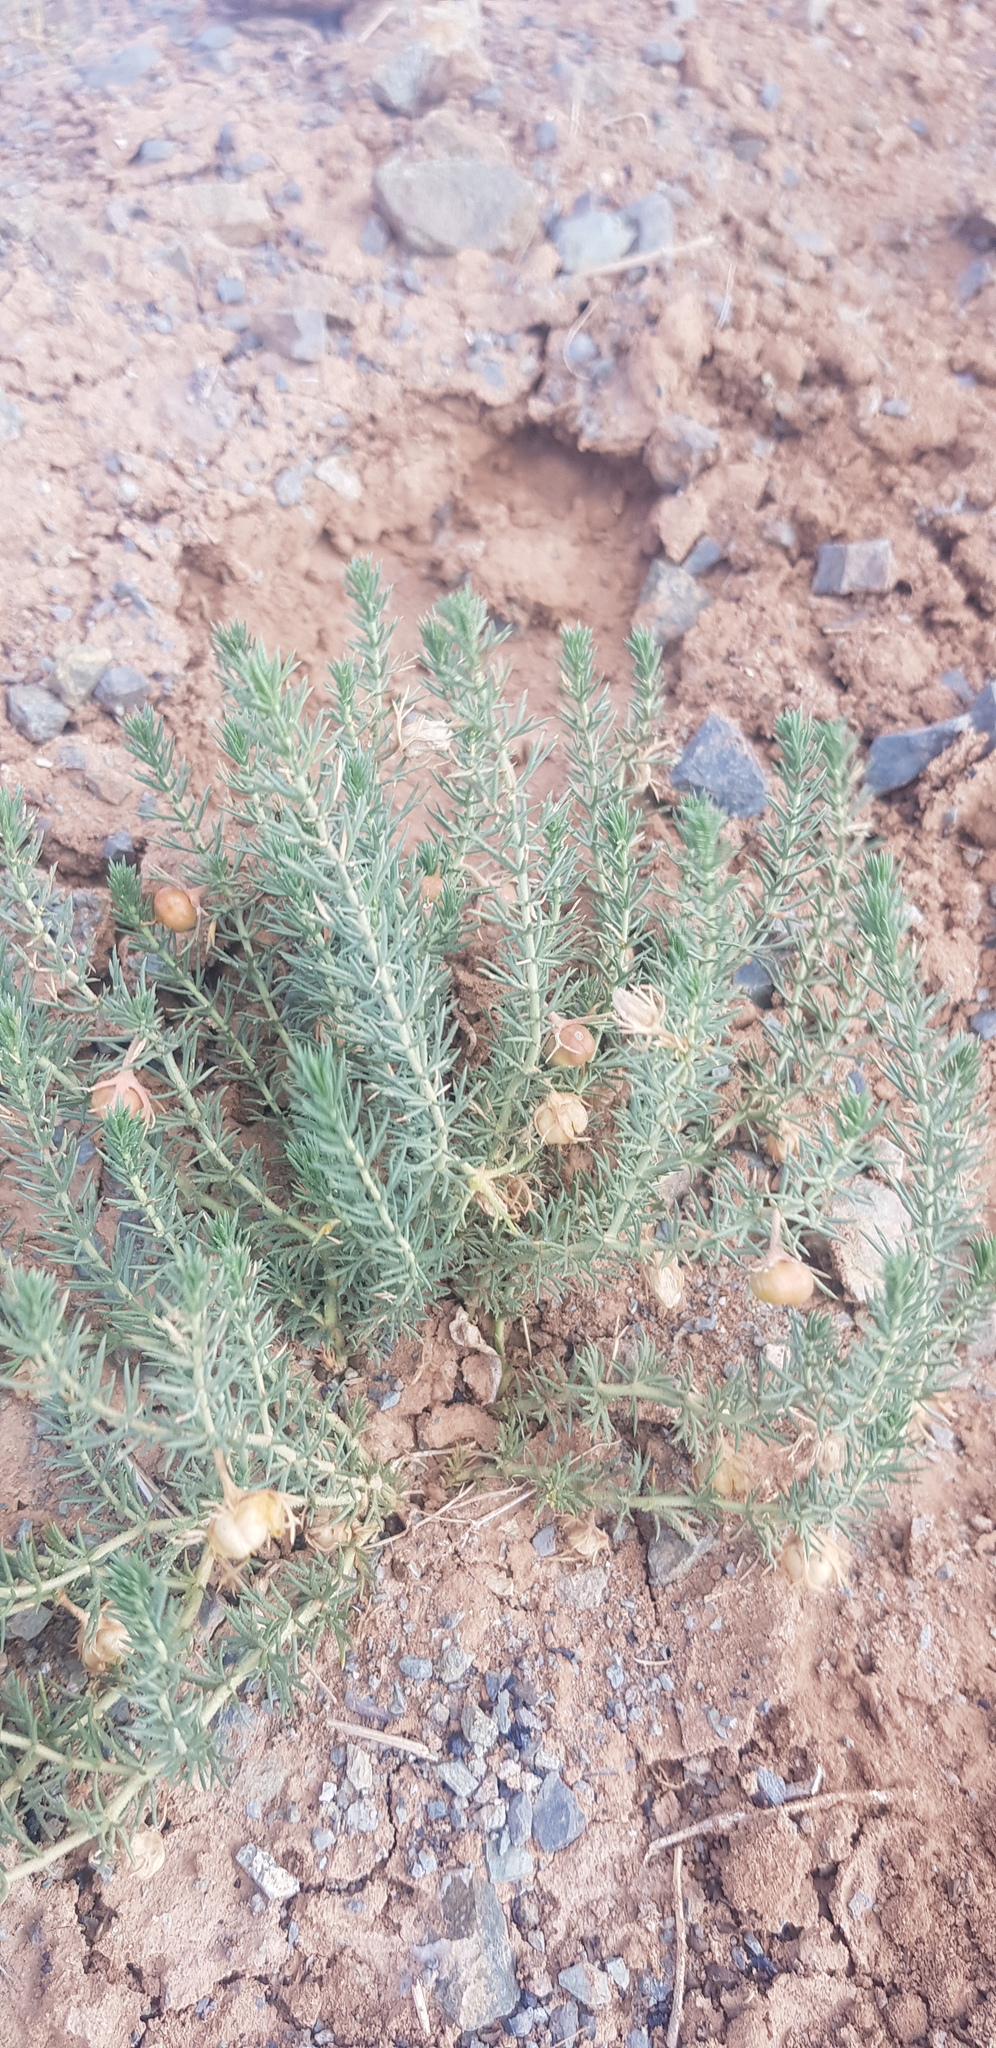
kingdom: Plantae
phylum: Tracheophyta
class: Magnoliopsida
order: Sapindales
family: Tetradiclidaceae
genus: Peganum
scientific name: Peganum harmala
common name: Harmal peganum
